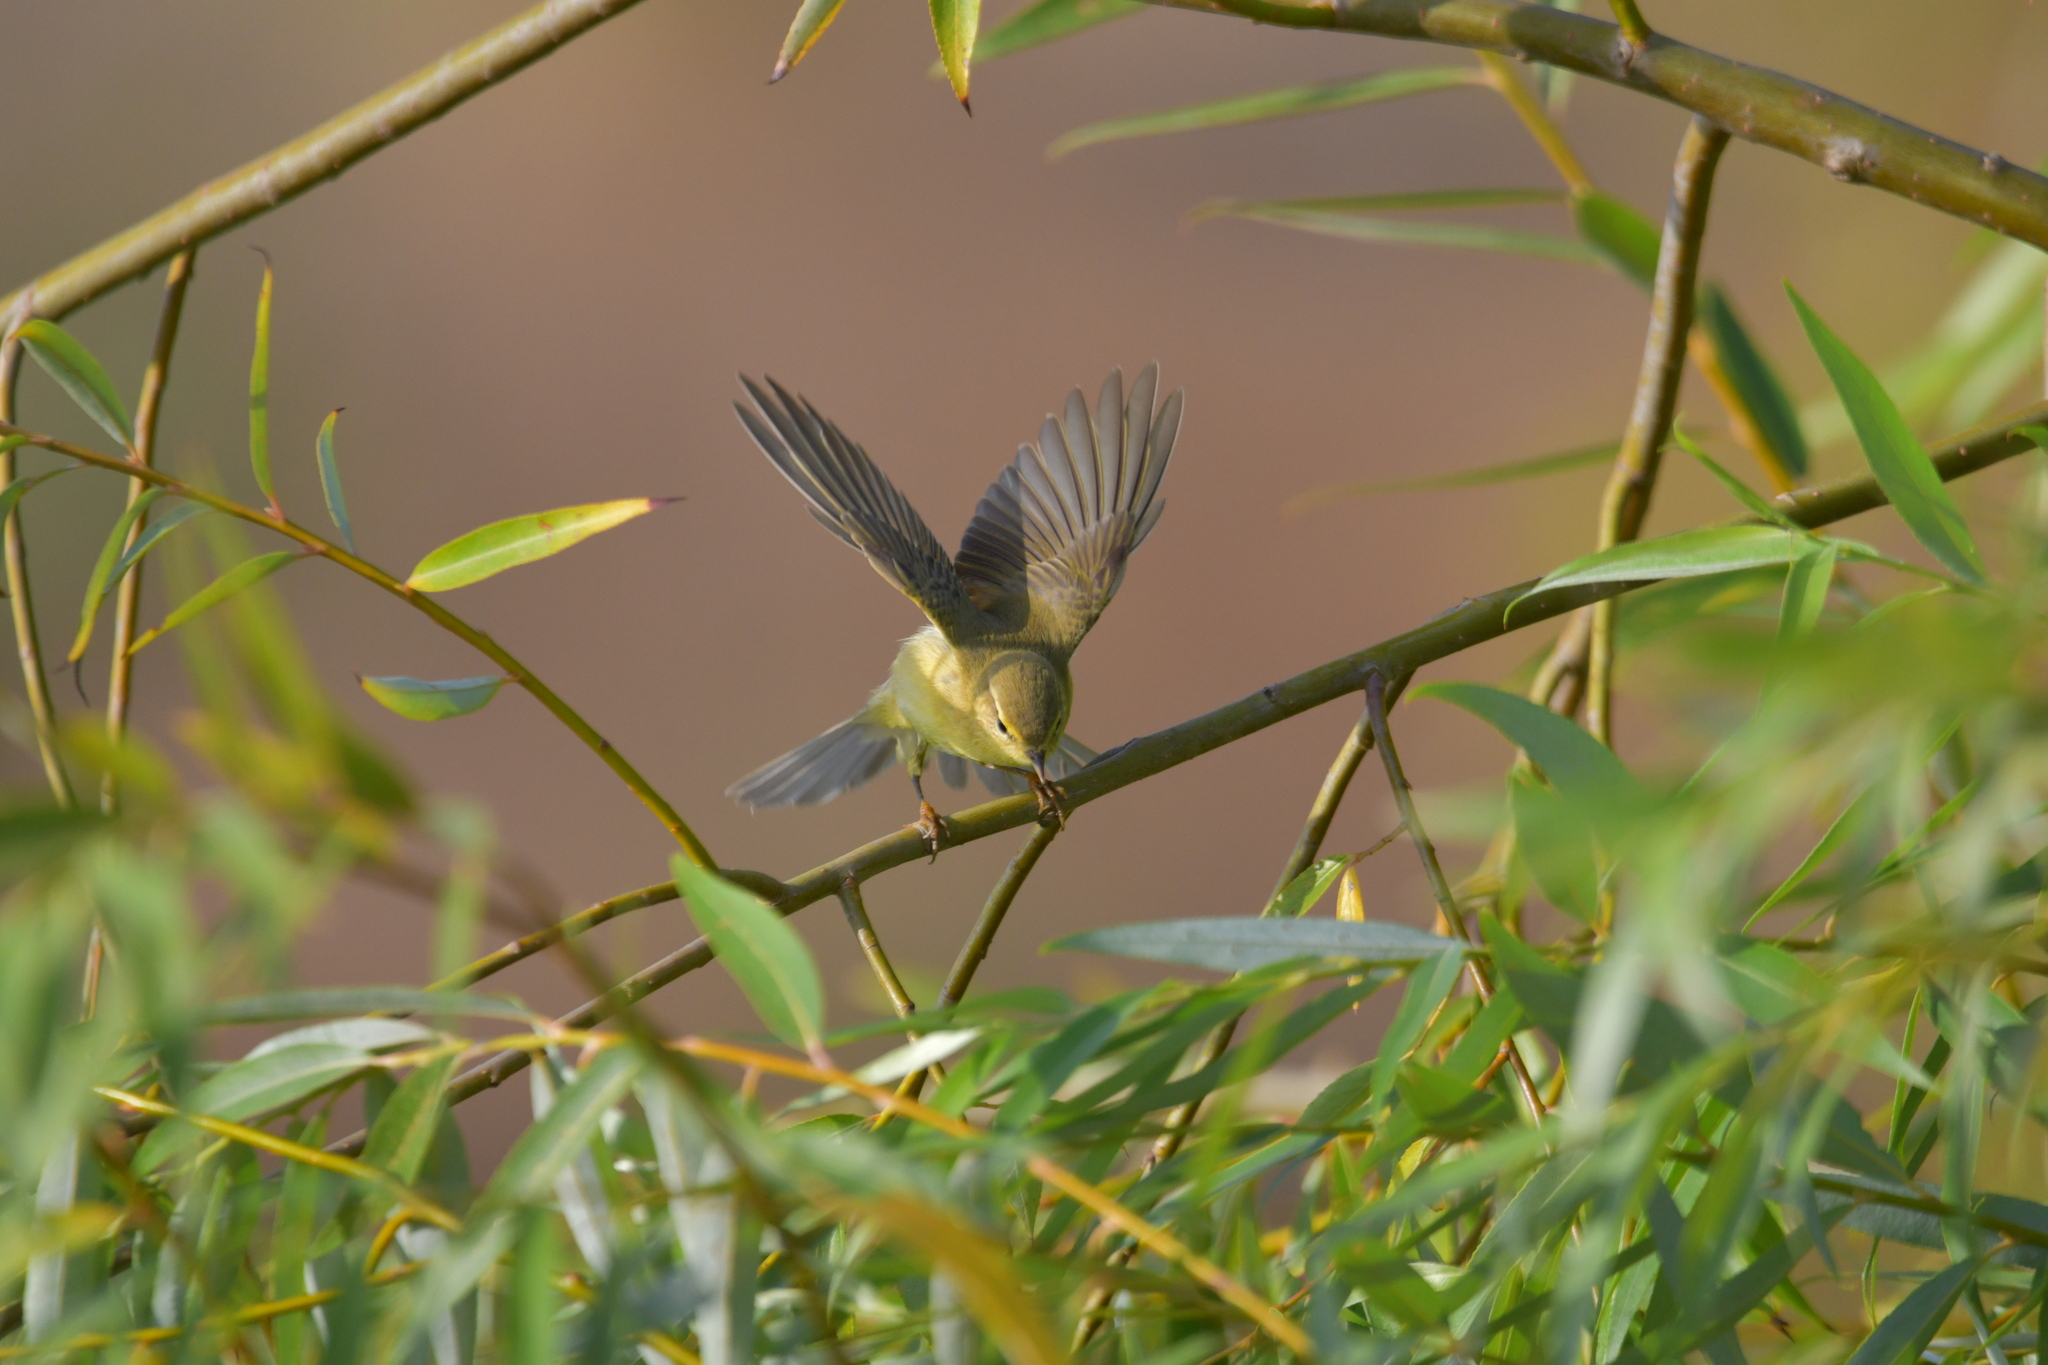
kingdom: Animalia
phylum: Chordata
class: Aves
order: Passeriformes
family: Phylloscopidae
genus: Phylloscopus
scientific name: Phylloscopus trochilus
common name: Willow warbler
